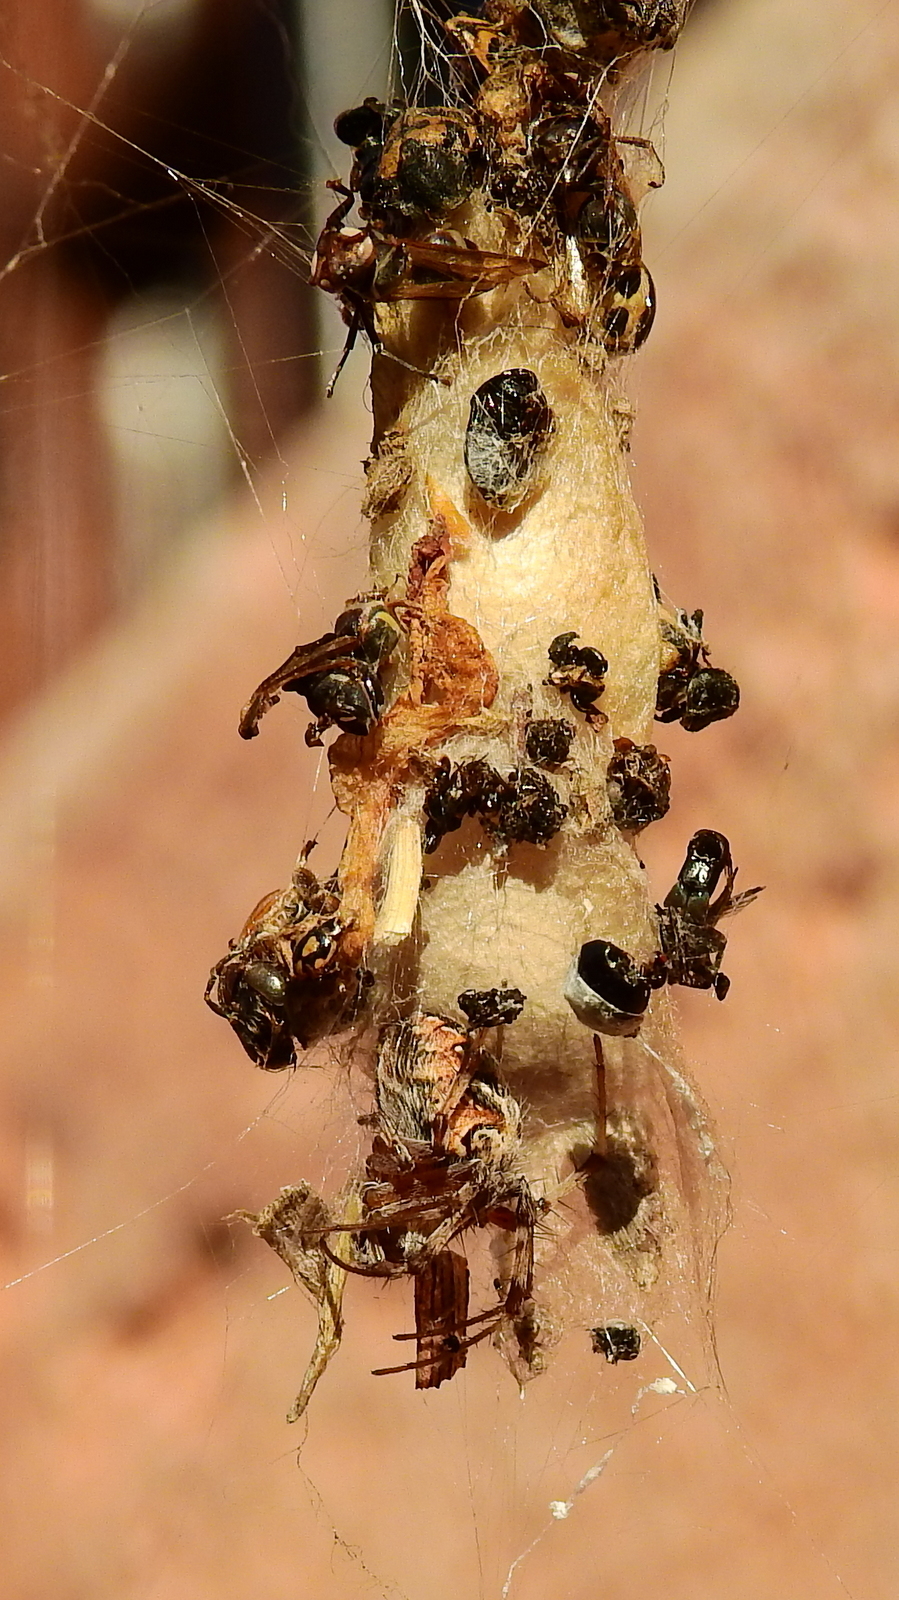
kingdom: Animalia
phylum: Arthropoda
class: Arachnida
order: Araneae
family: Araneidae
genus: Metepeira
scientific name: Metepeira
